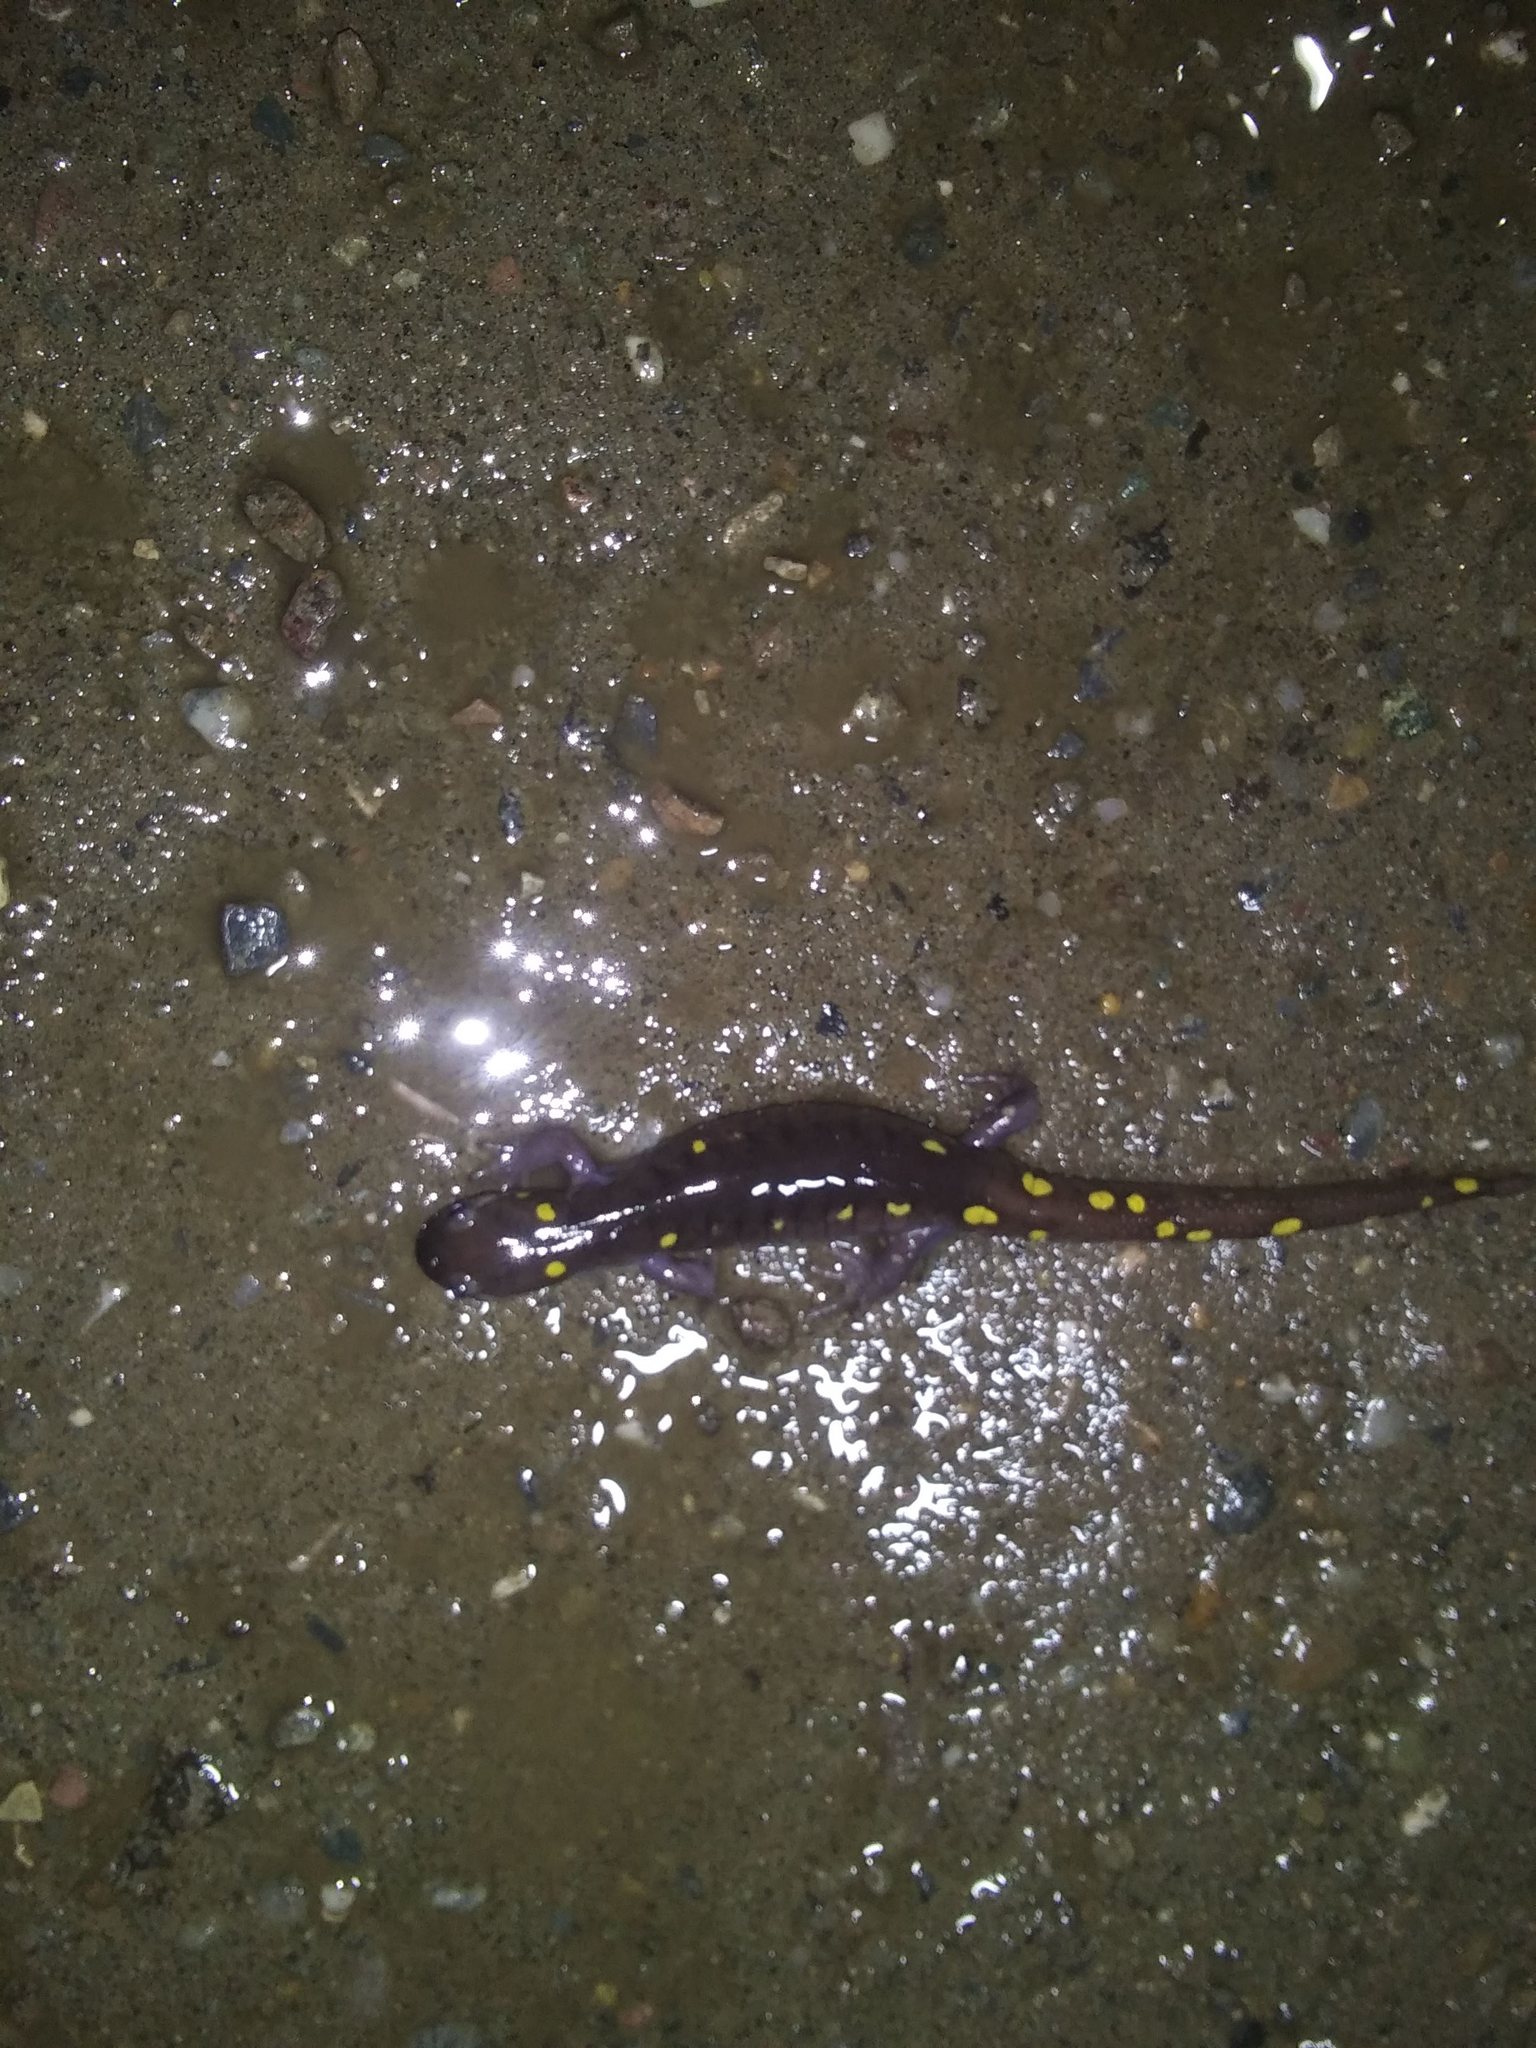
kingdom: Animalia
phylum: Chordata
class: Amphibia
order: Caudata
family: Ambystomatidae
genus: Ambystoma
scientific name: Ambystoma maculatum
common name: Spotted salamander
